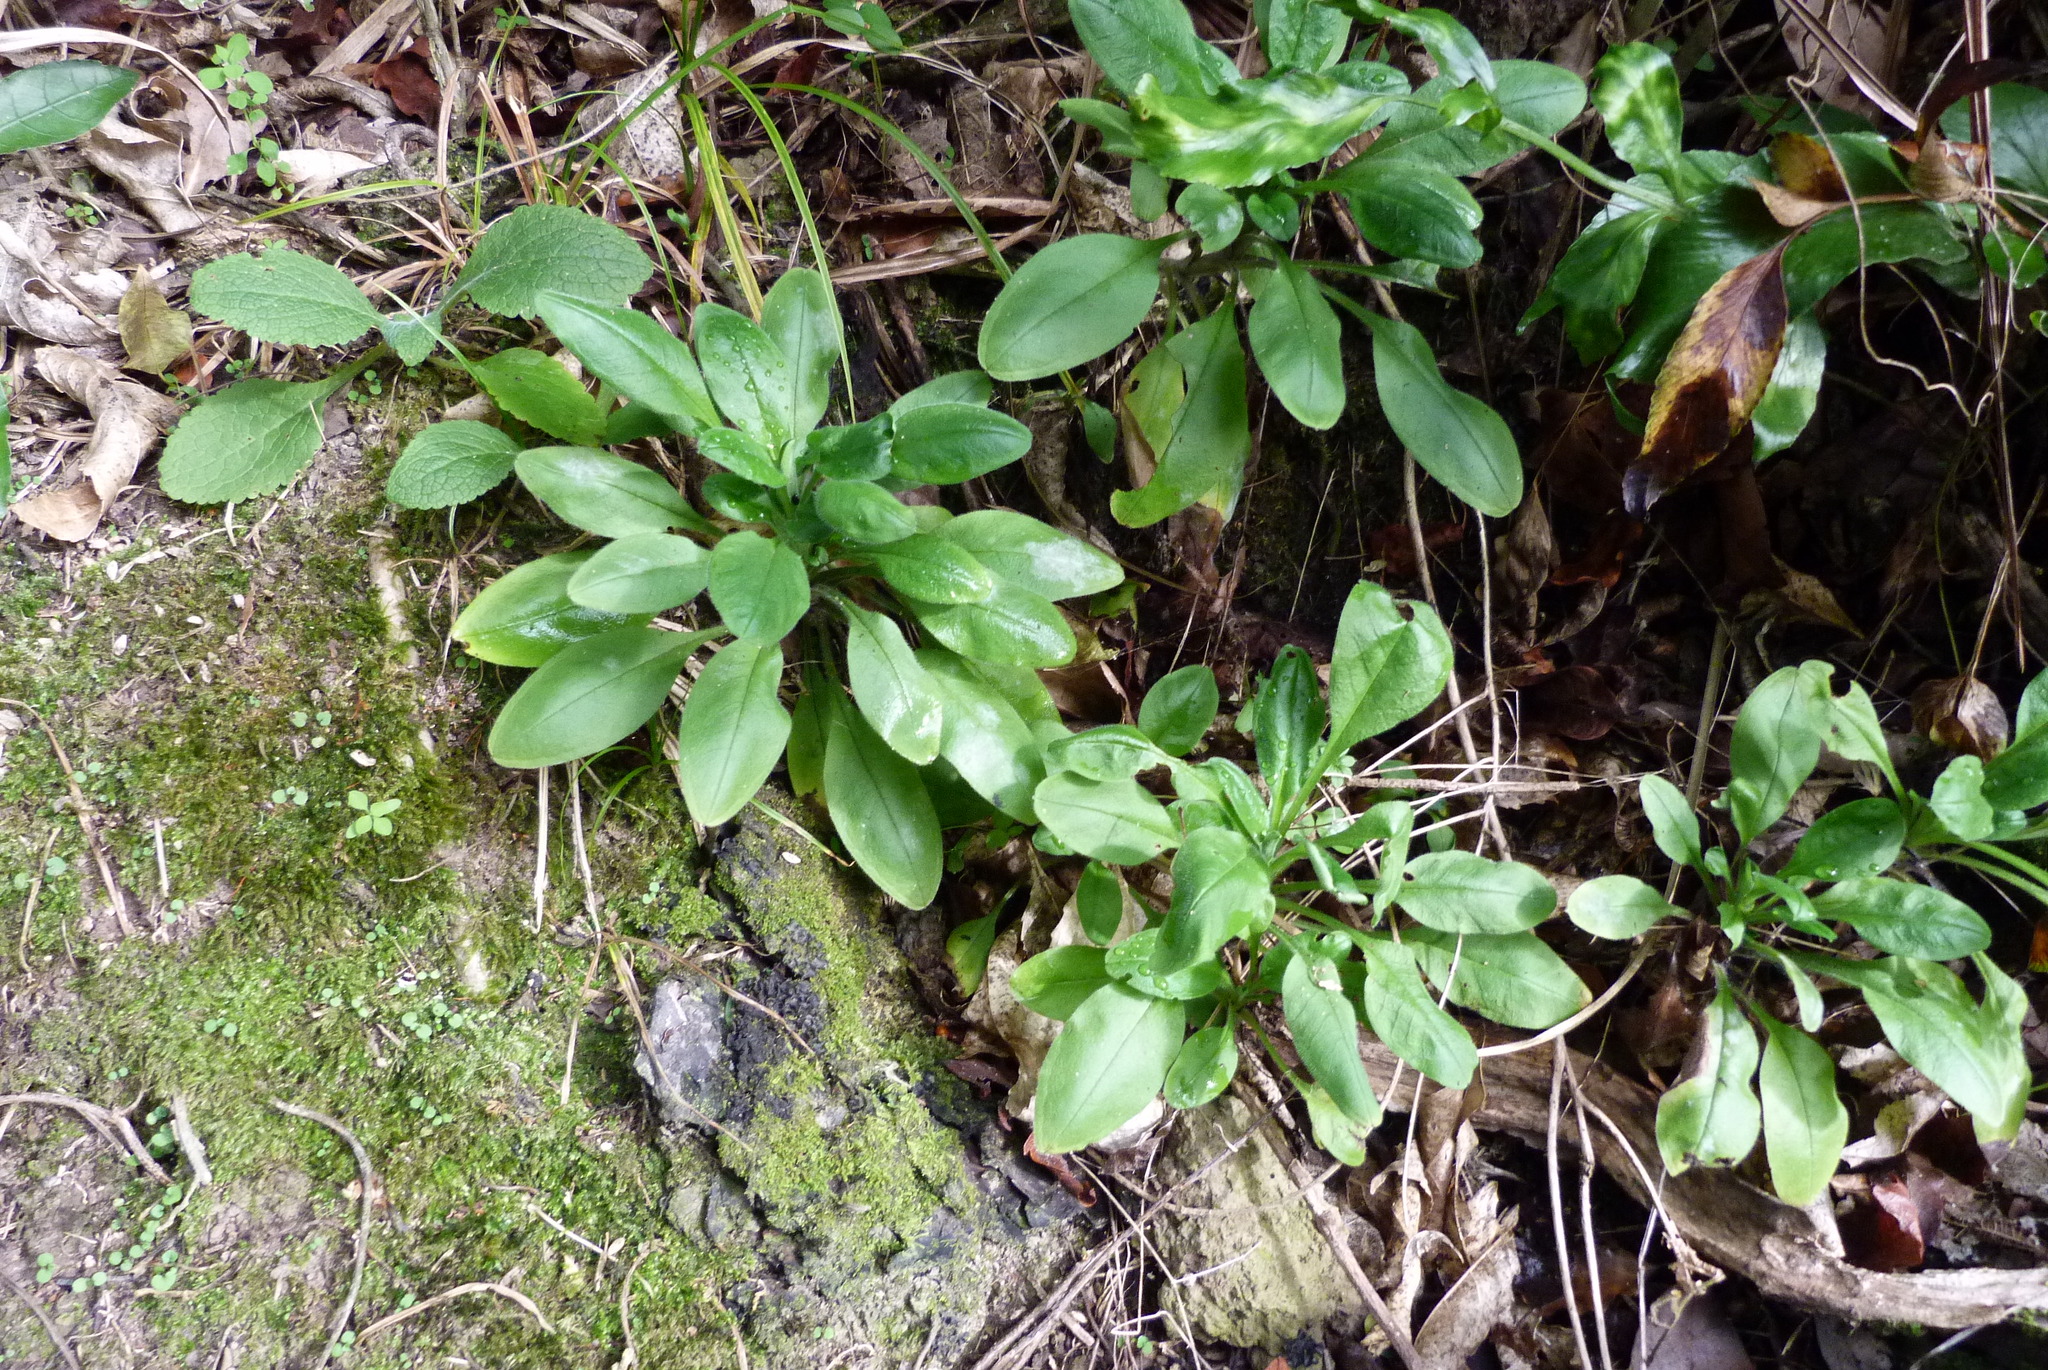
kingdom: Plantae
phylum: Tracheophyta
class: Magnoliopsida
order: Boraginales
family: Boraginaceae
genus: Myosotis
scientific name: Myosotis sylvatica
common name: Wood forget-me-not
